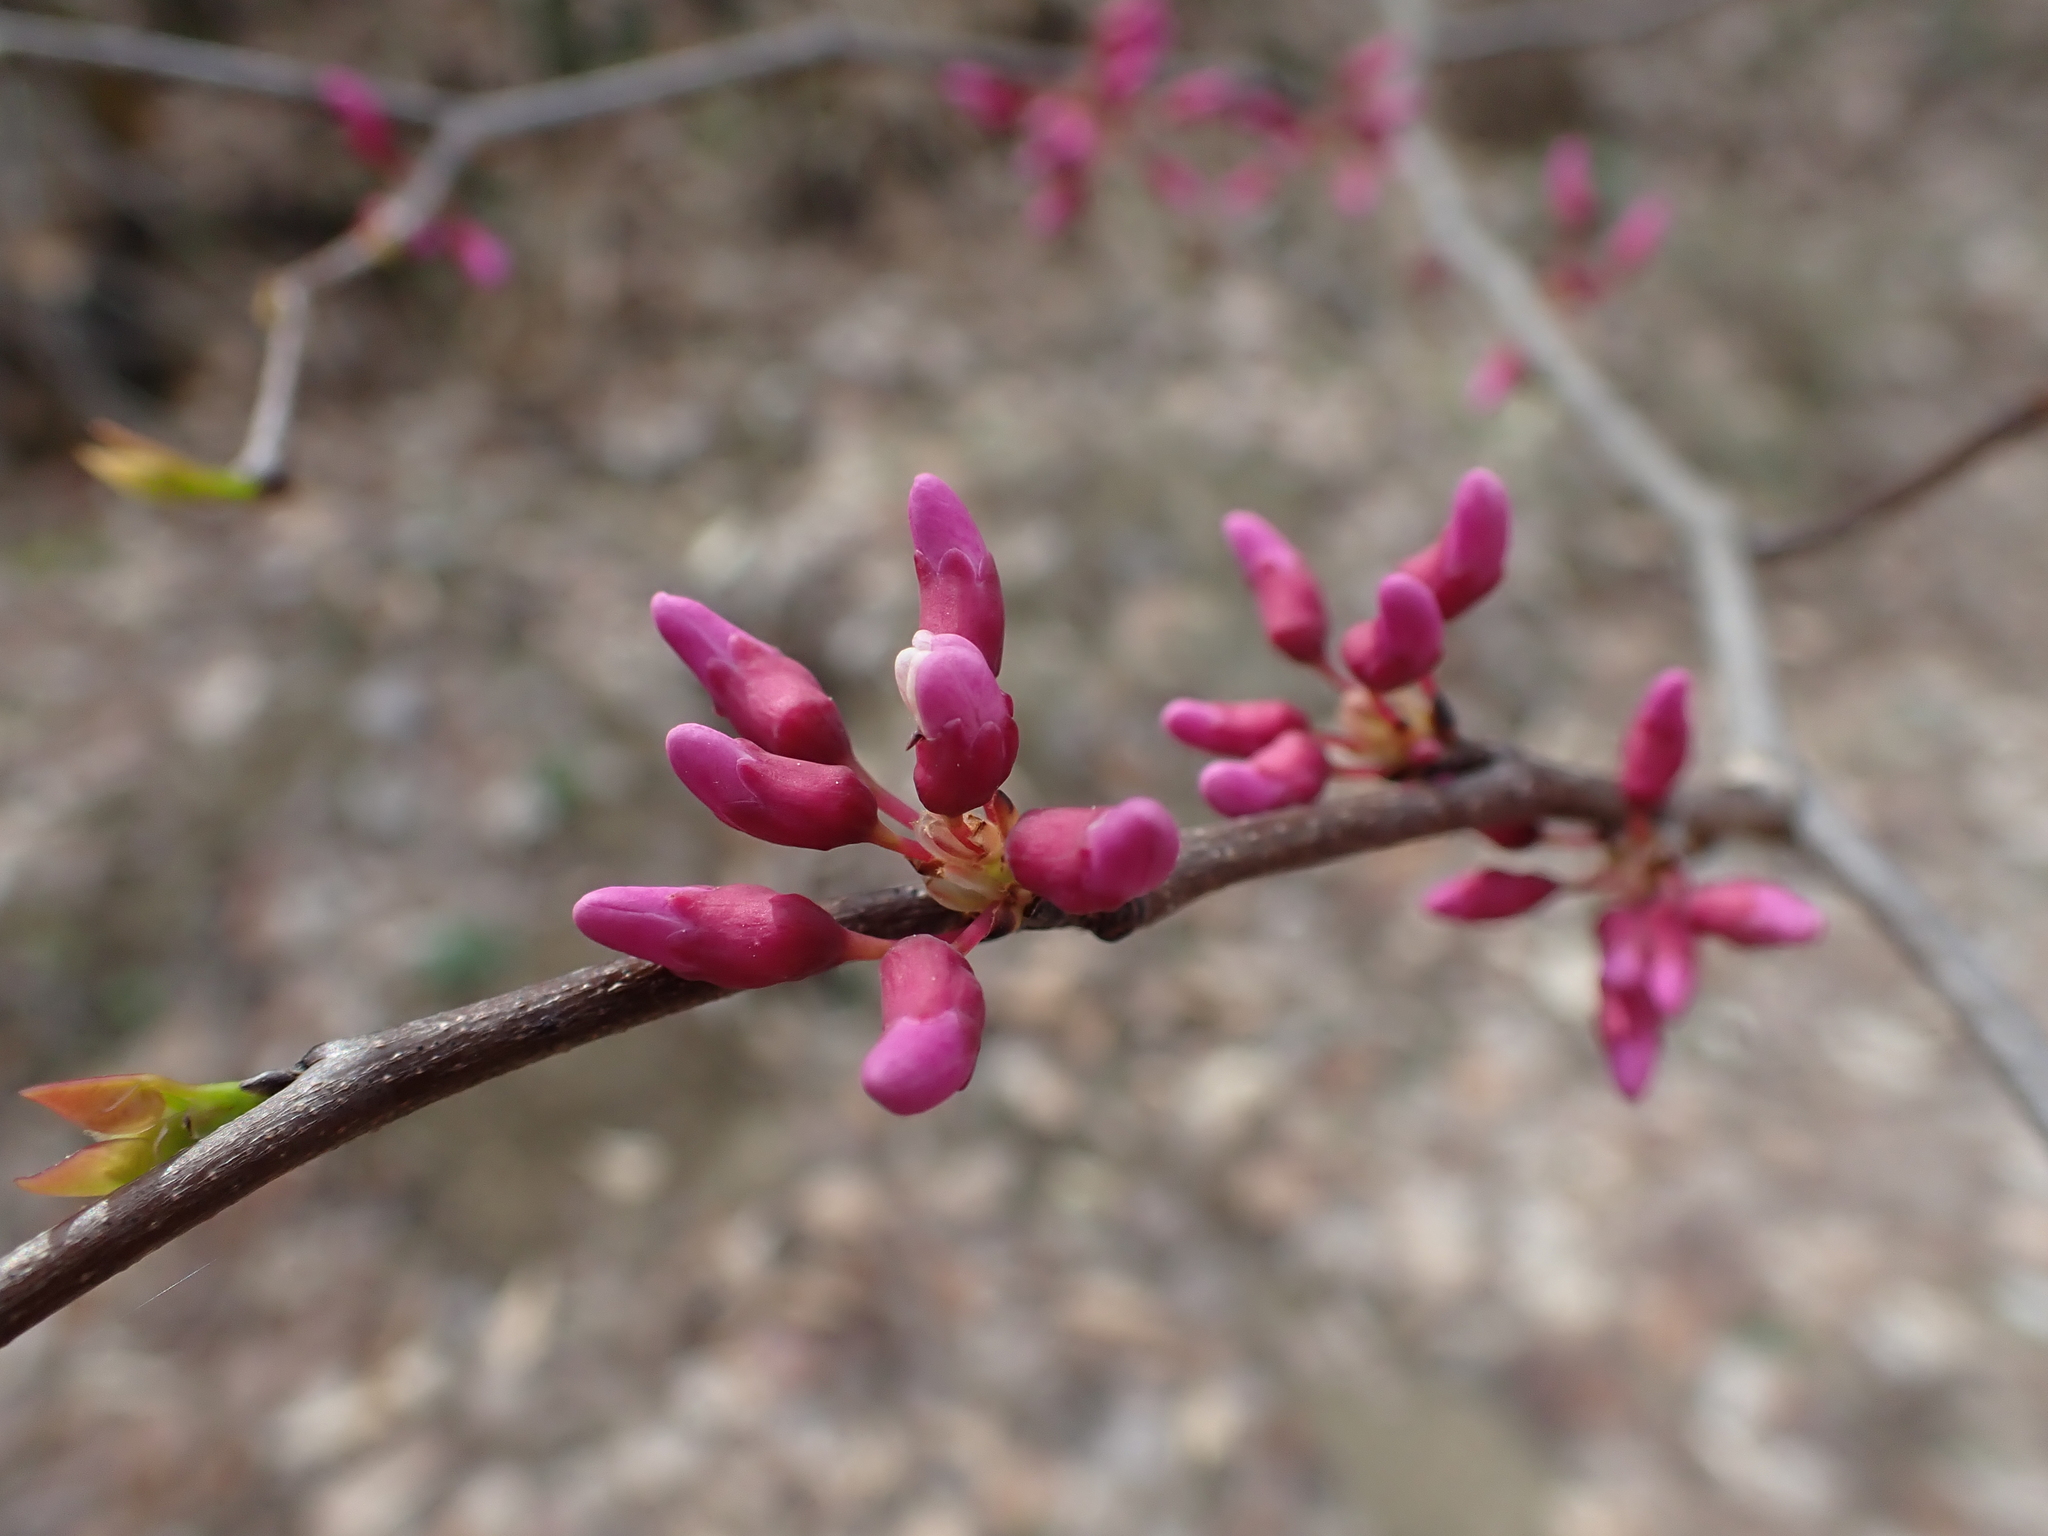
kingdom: Plantae
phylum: Tracheophyta
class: Magnoliopsida
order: Fabales
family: Fabaceae
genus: Cercis
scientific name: Cercis canadensis
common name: Eastern redbud
